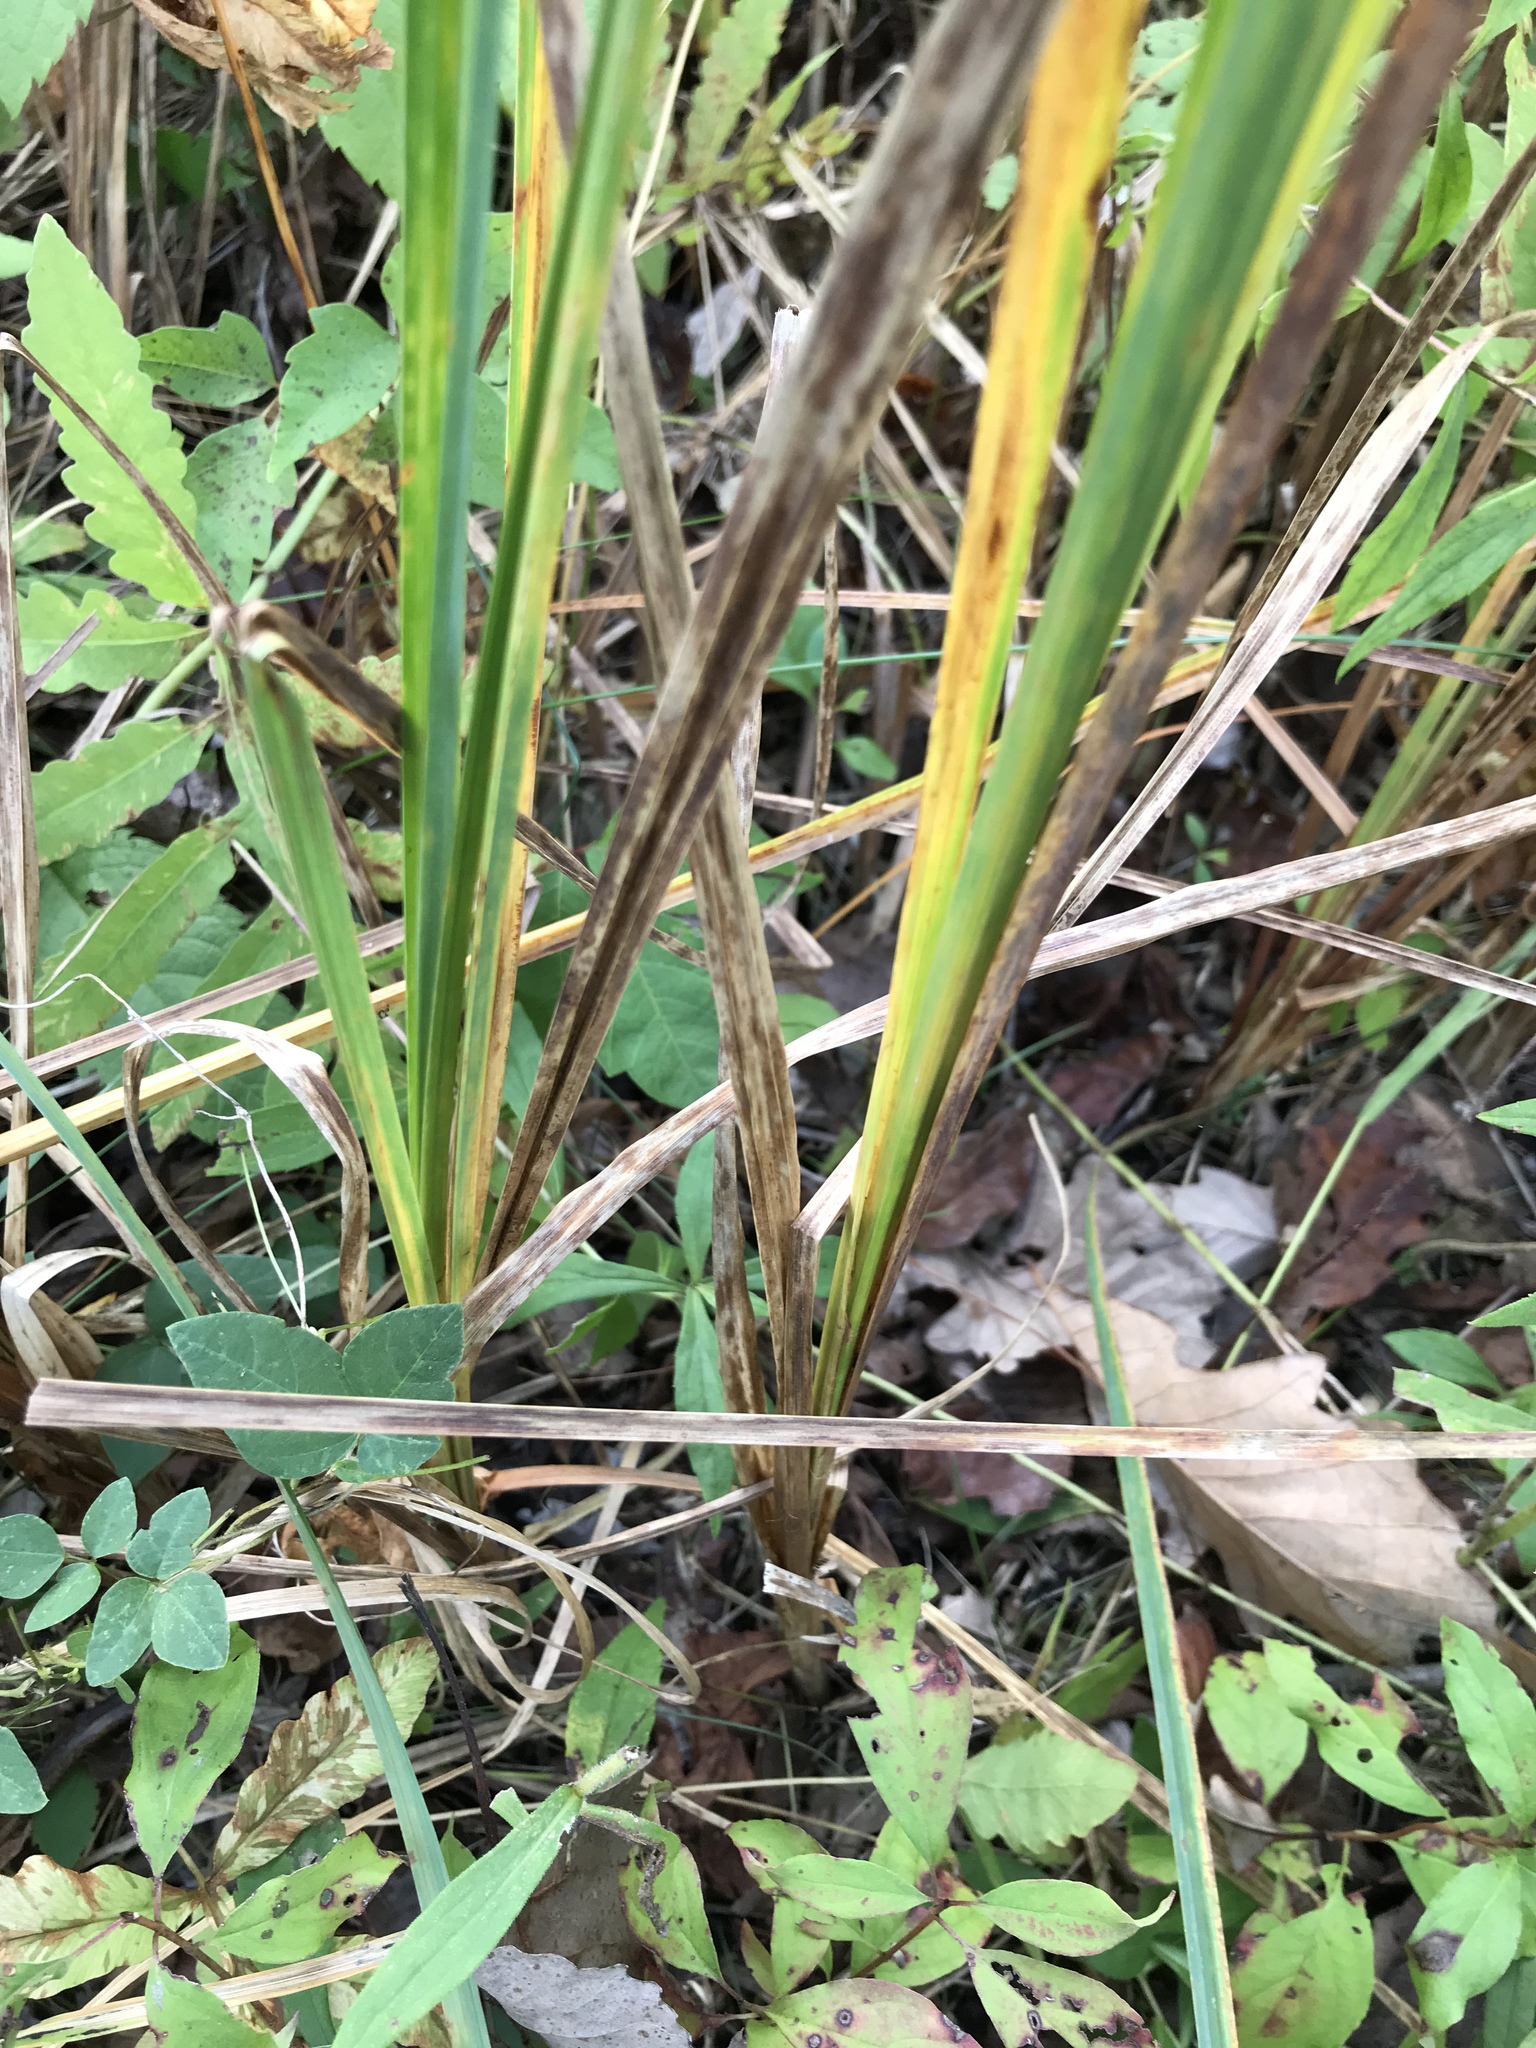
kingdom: Plantae
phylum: Tracheophyta
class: Liliopsida
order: Poales
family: Cyperaceae
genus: Carex
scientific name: Carex lacustris
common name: Common lake sedge
